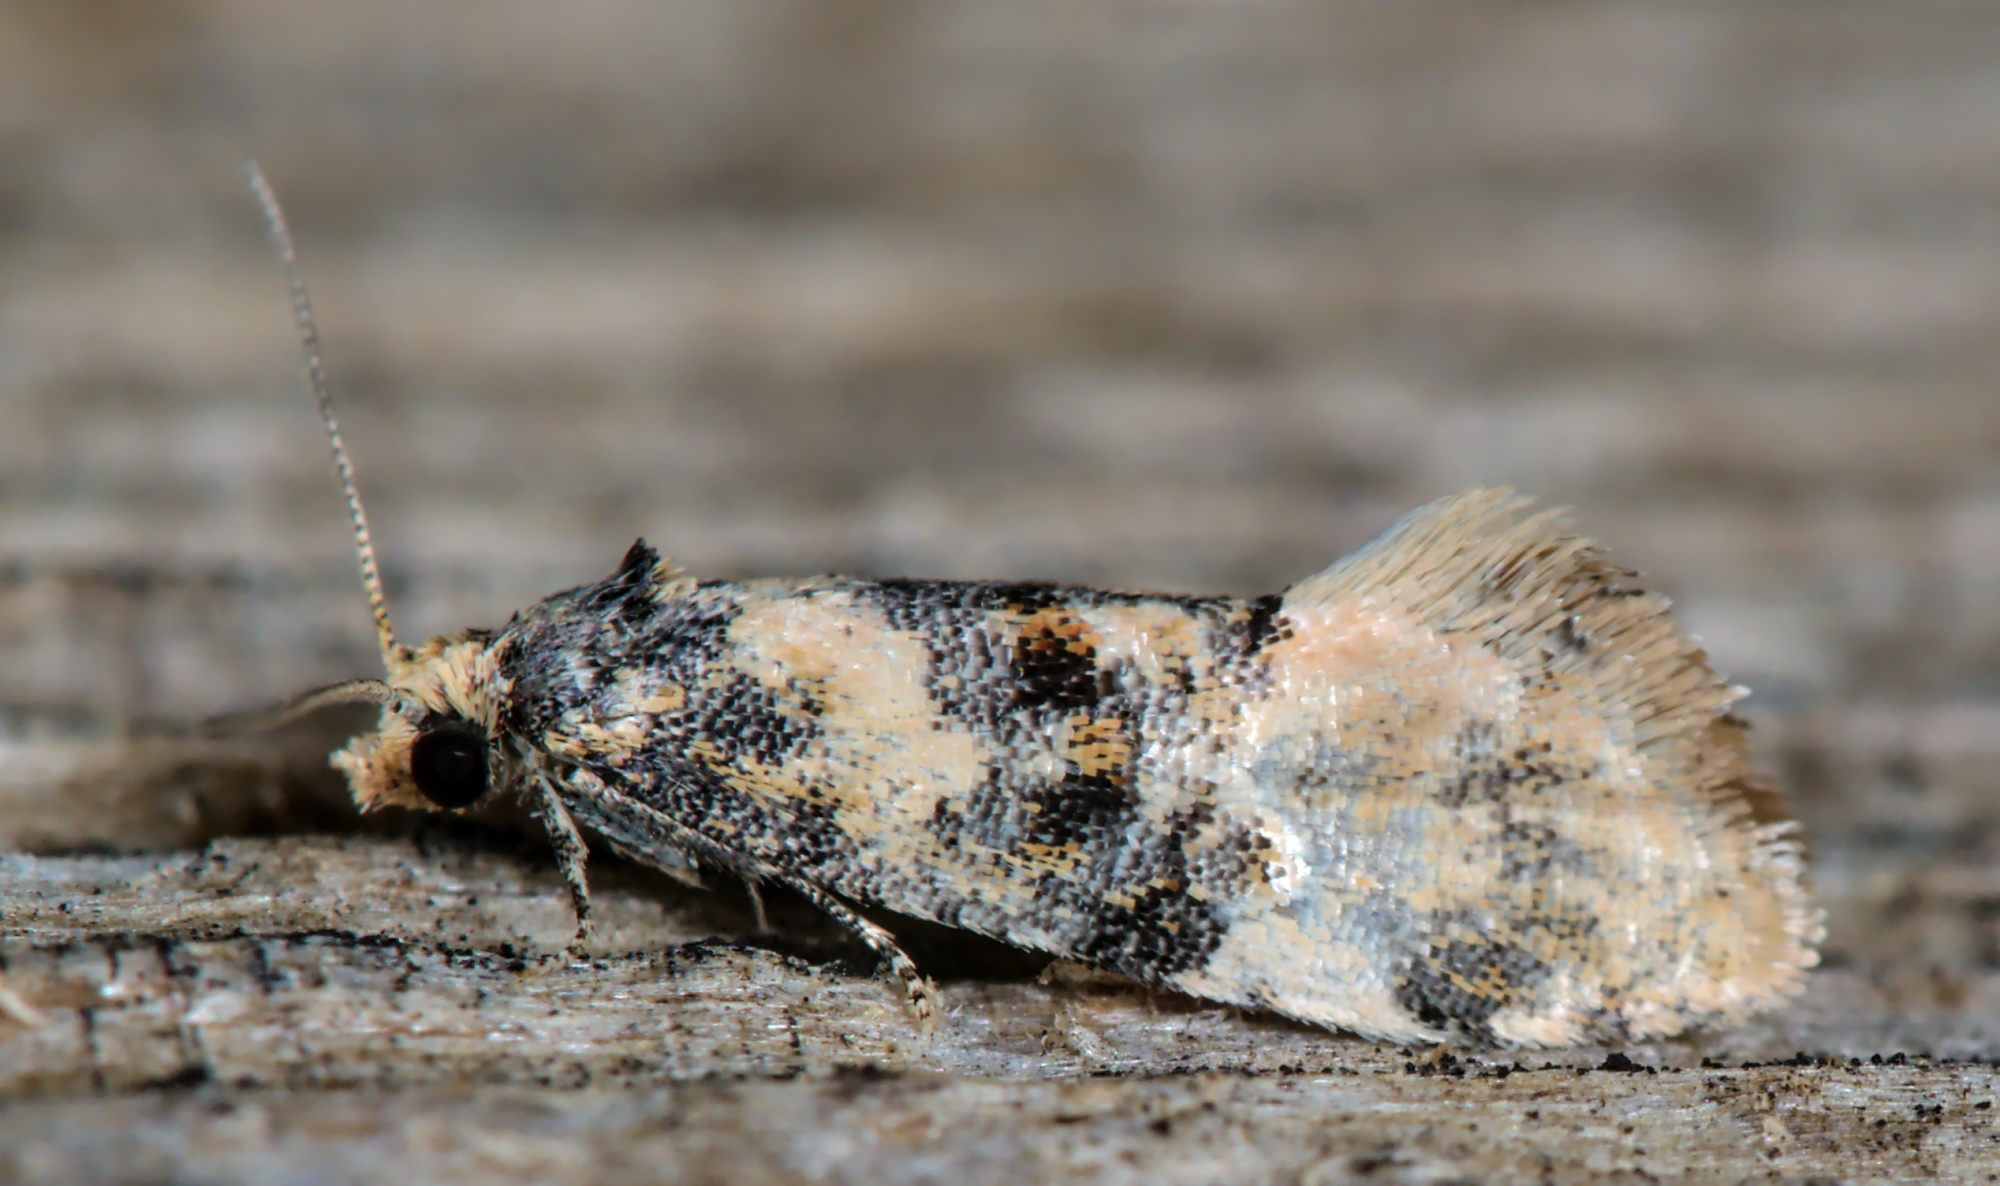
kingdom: Animalia
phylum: Arthropoda
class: Insecta
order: Lepidoptera
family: Tortricidae
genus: Thyraylia
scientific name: Thyraylia nana
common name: Birch conch
